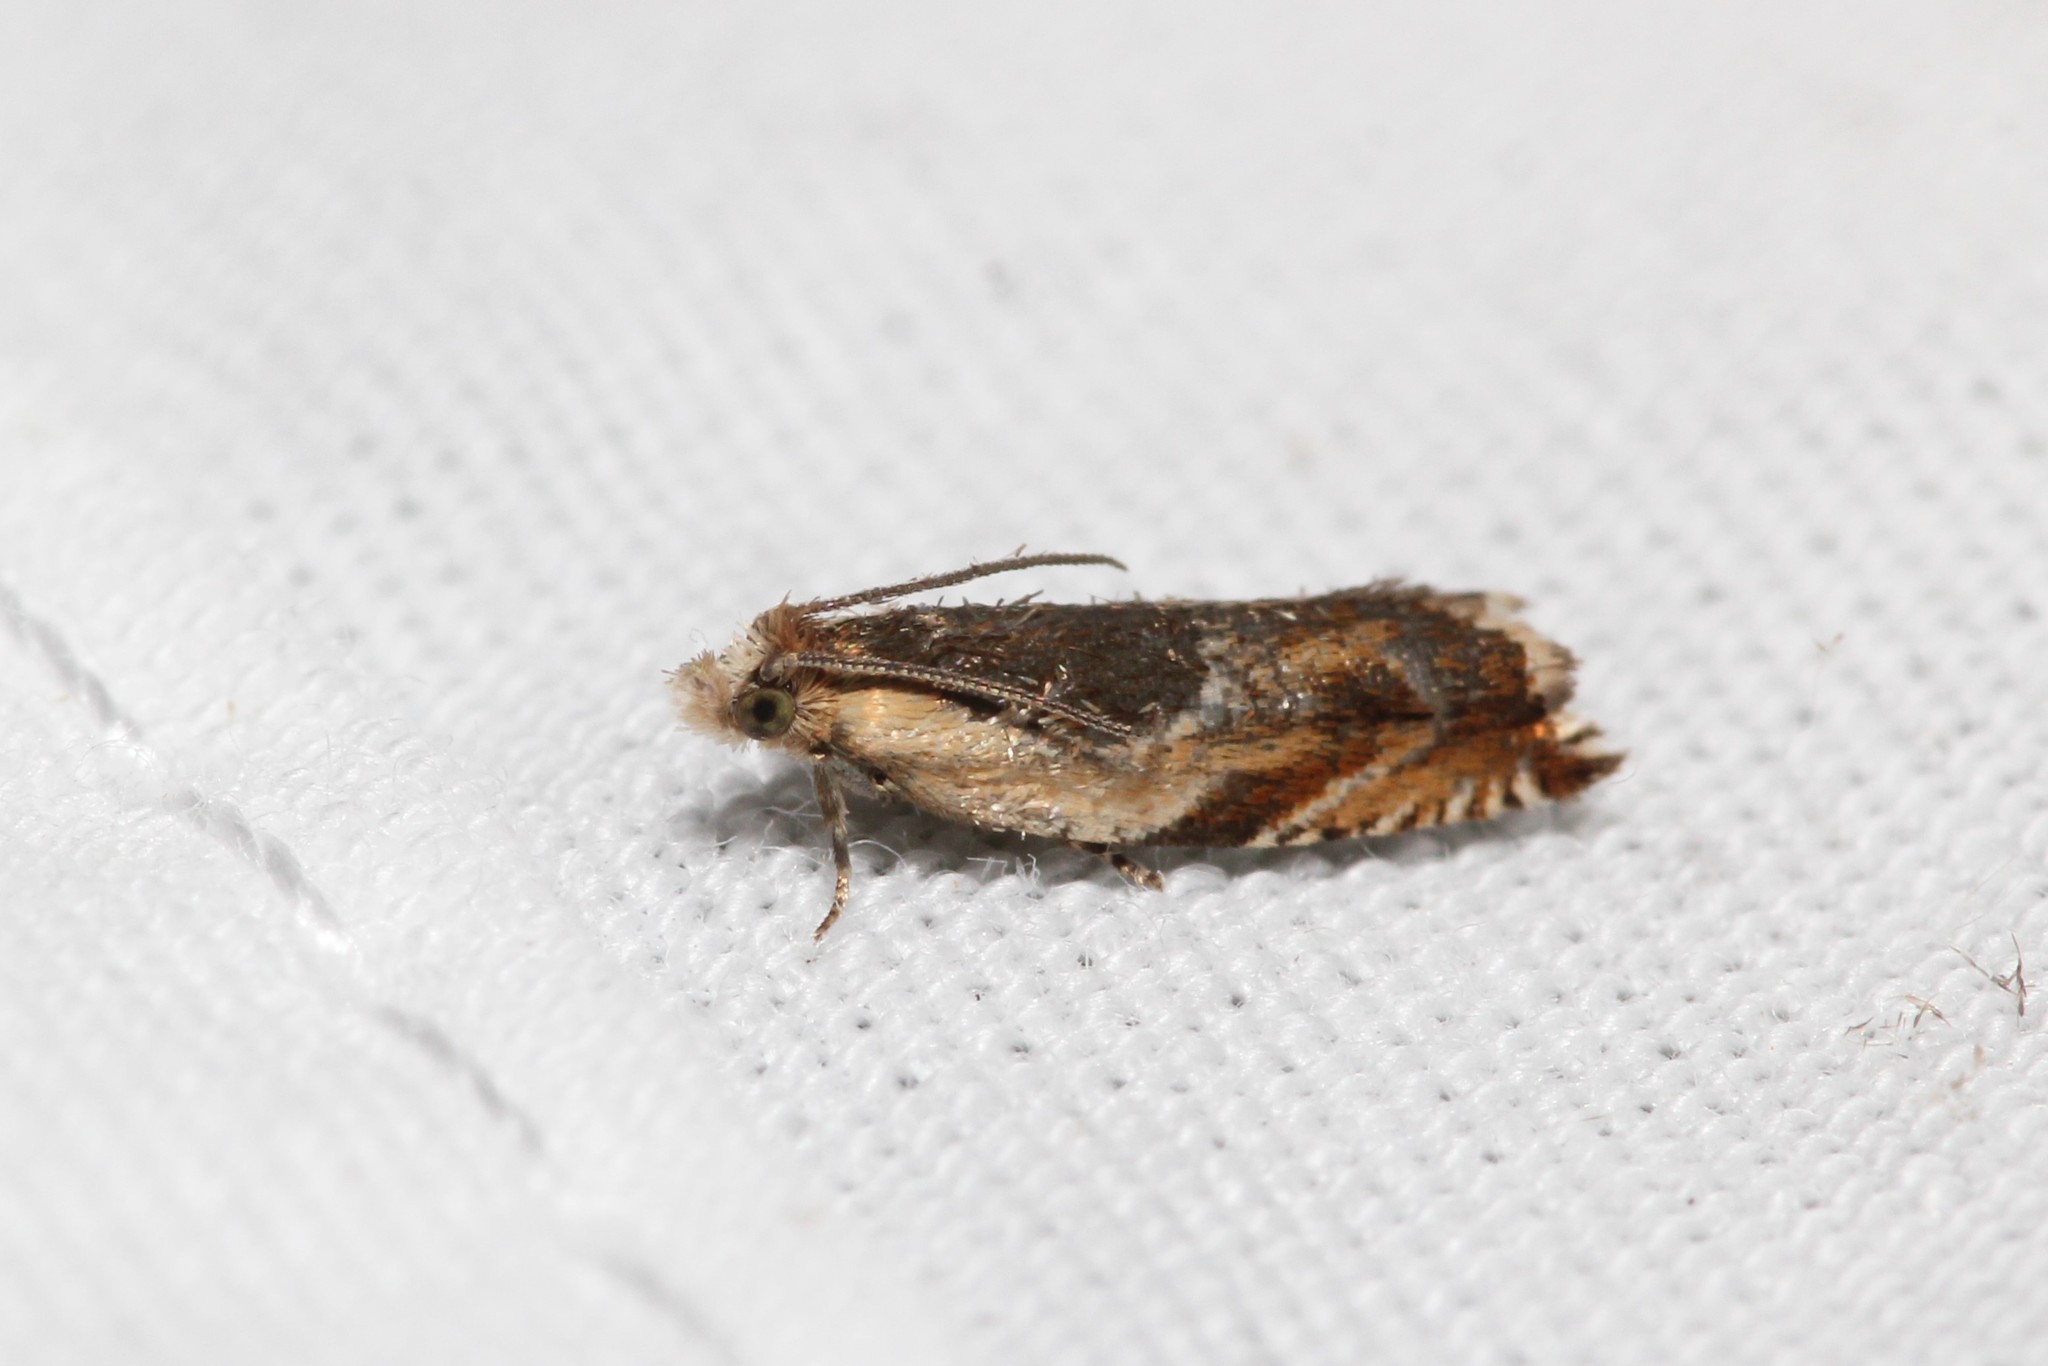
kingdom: Animalia
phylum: Arthropoda
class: Insecta
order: Lepidoptera
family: Tortricidae
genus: Ancylis
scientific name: Ancylis metamelana
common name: Black-marked ancylis moth
